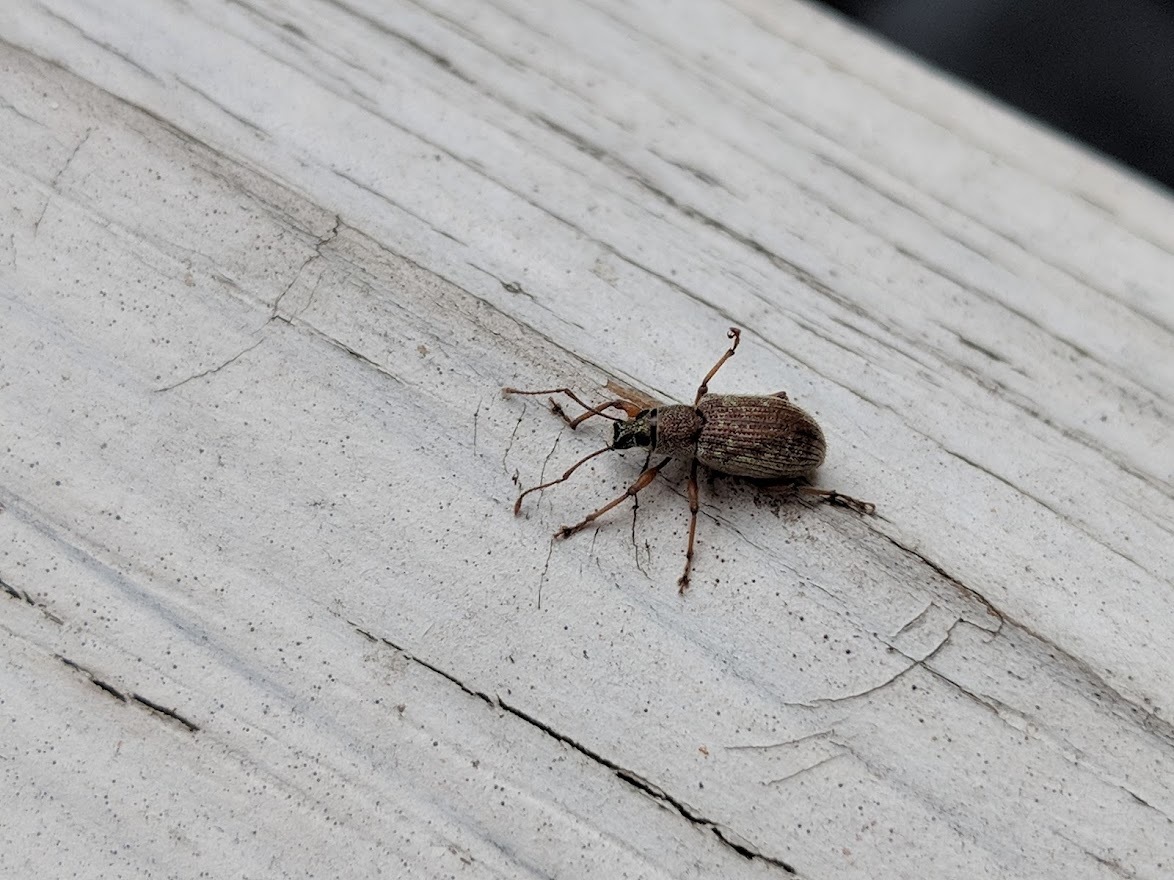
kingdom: Animalia
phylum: Arthropoda
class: Insecta
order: Coleoptera
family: Curculionidae
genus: Cyrtepistomus
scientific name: Cyrtepistomus castaneus
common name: Weevil
